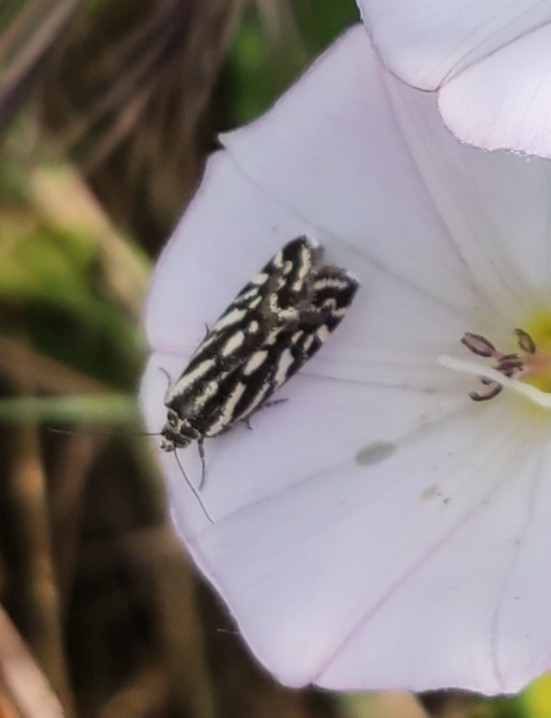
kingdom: Animalia
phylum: Arthropoda
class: Insecta
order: Lepidoptera
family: Noctuidae
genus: Acontia
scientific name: Acontia trabealis
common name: Spotted sulphur
